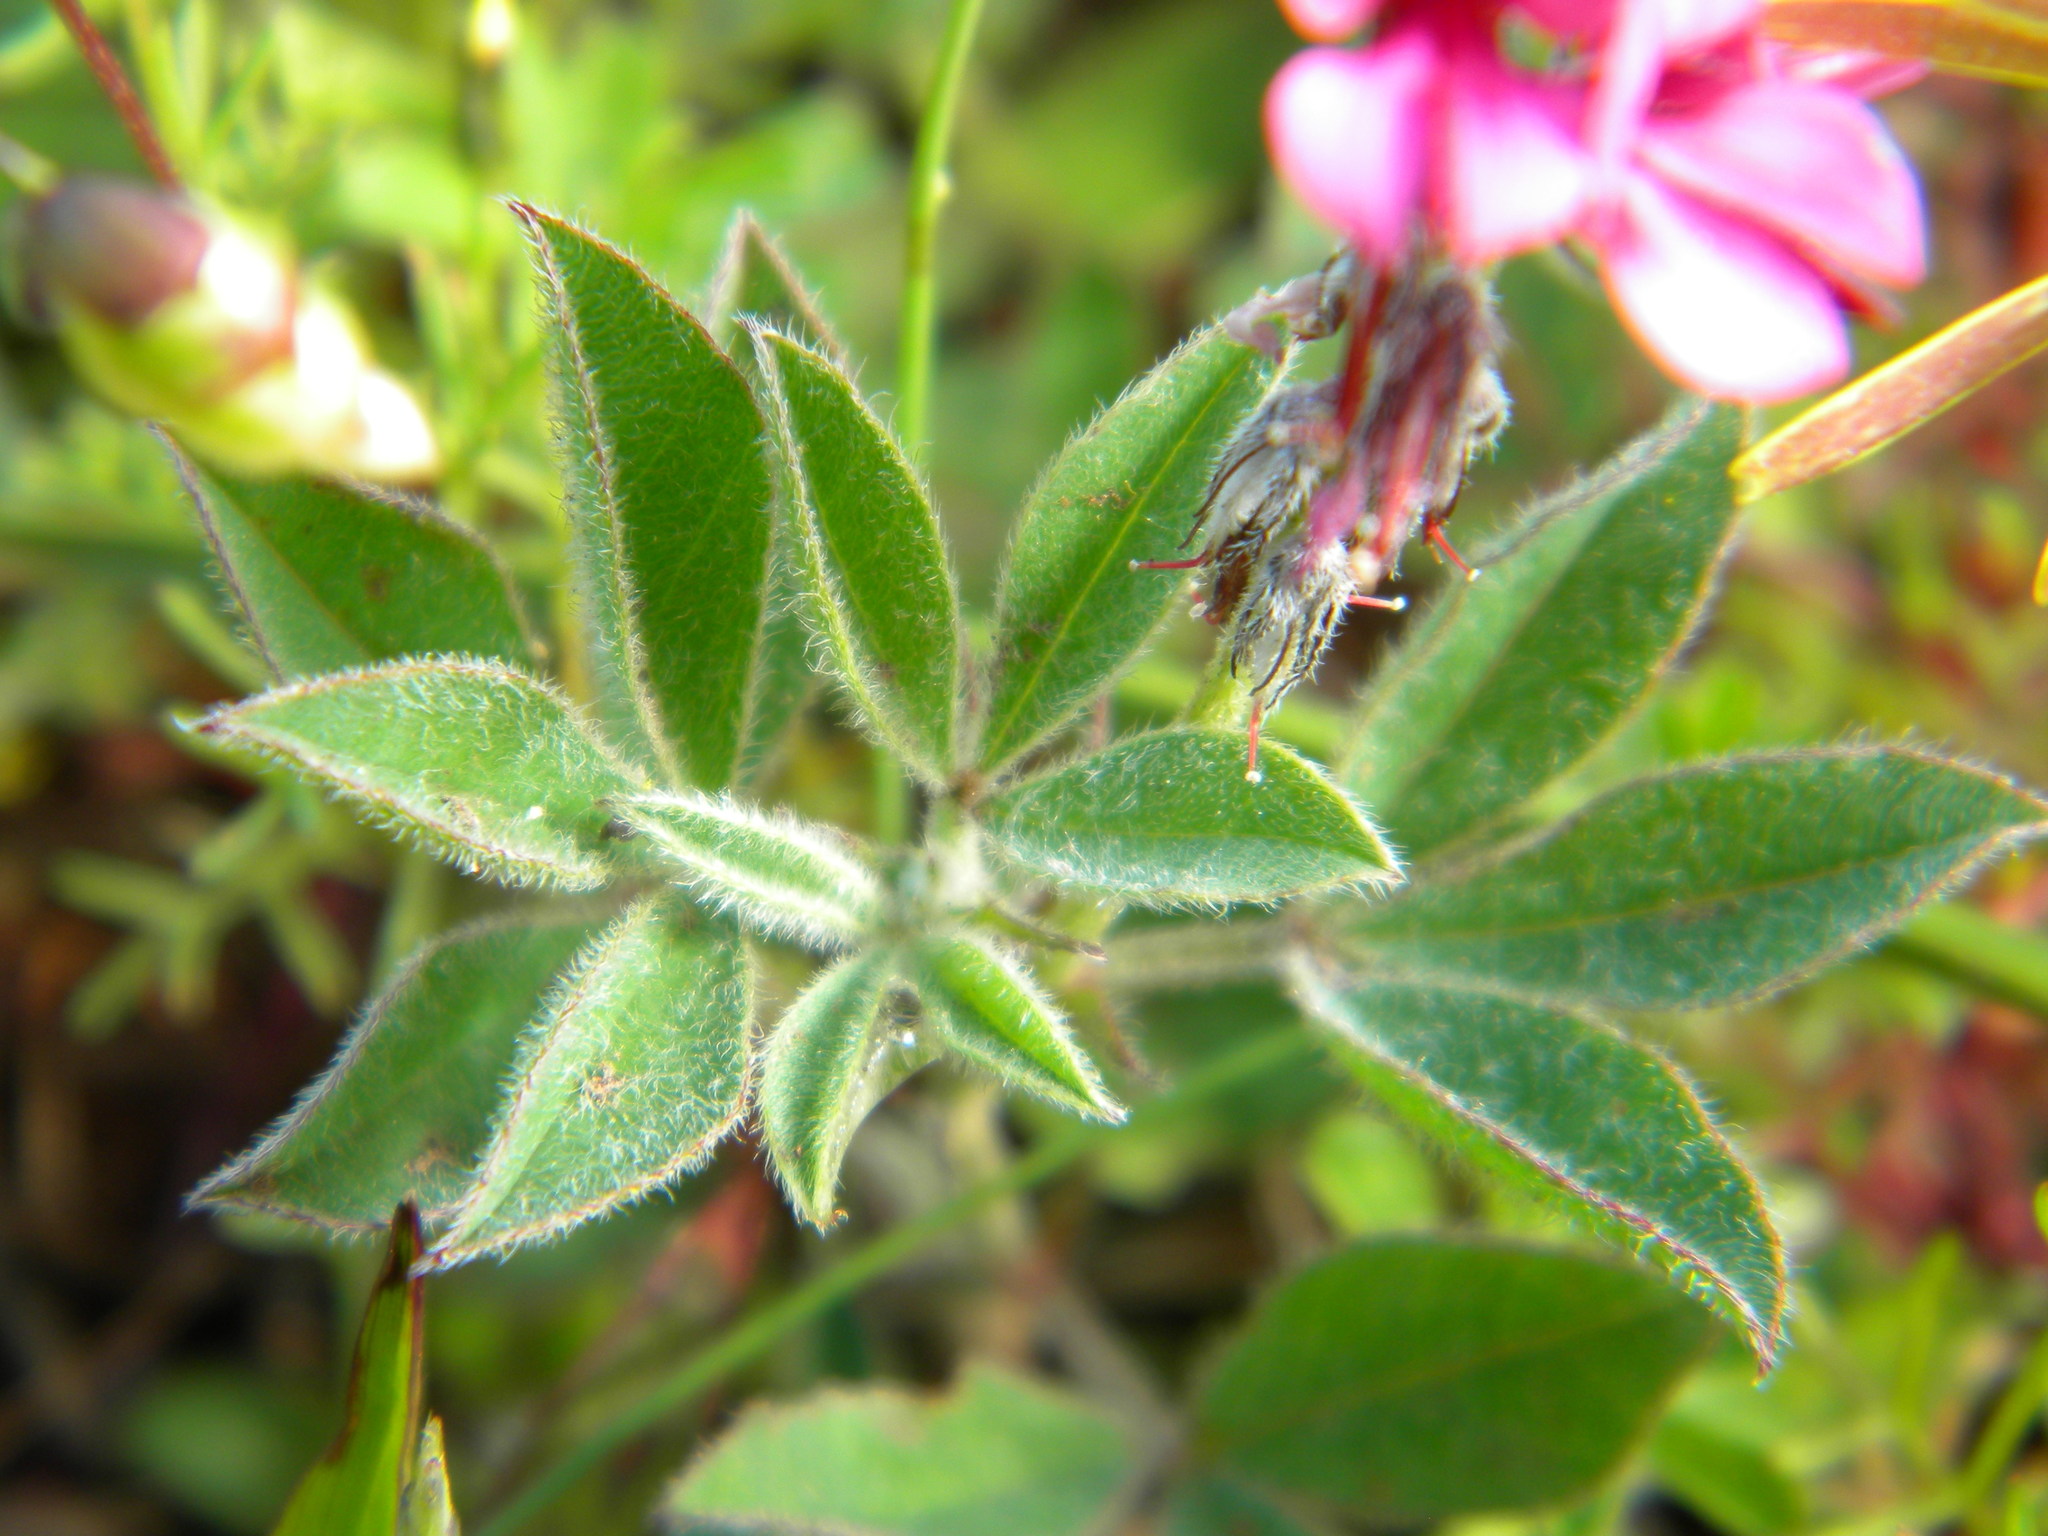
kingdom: Plantae
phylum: Tracheophyta
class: Magnoliopsida
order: Fabales
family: Fabaceae
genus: Indigofera
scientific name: Indigofera incana
